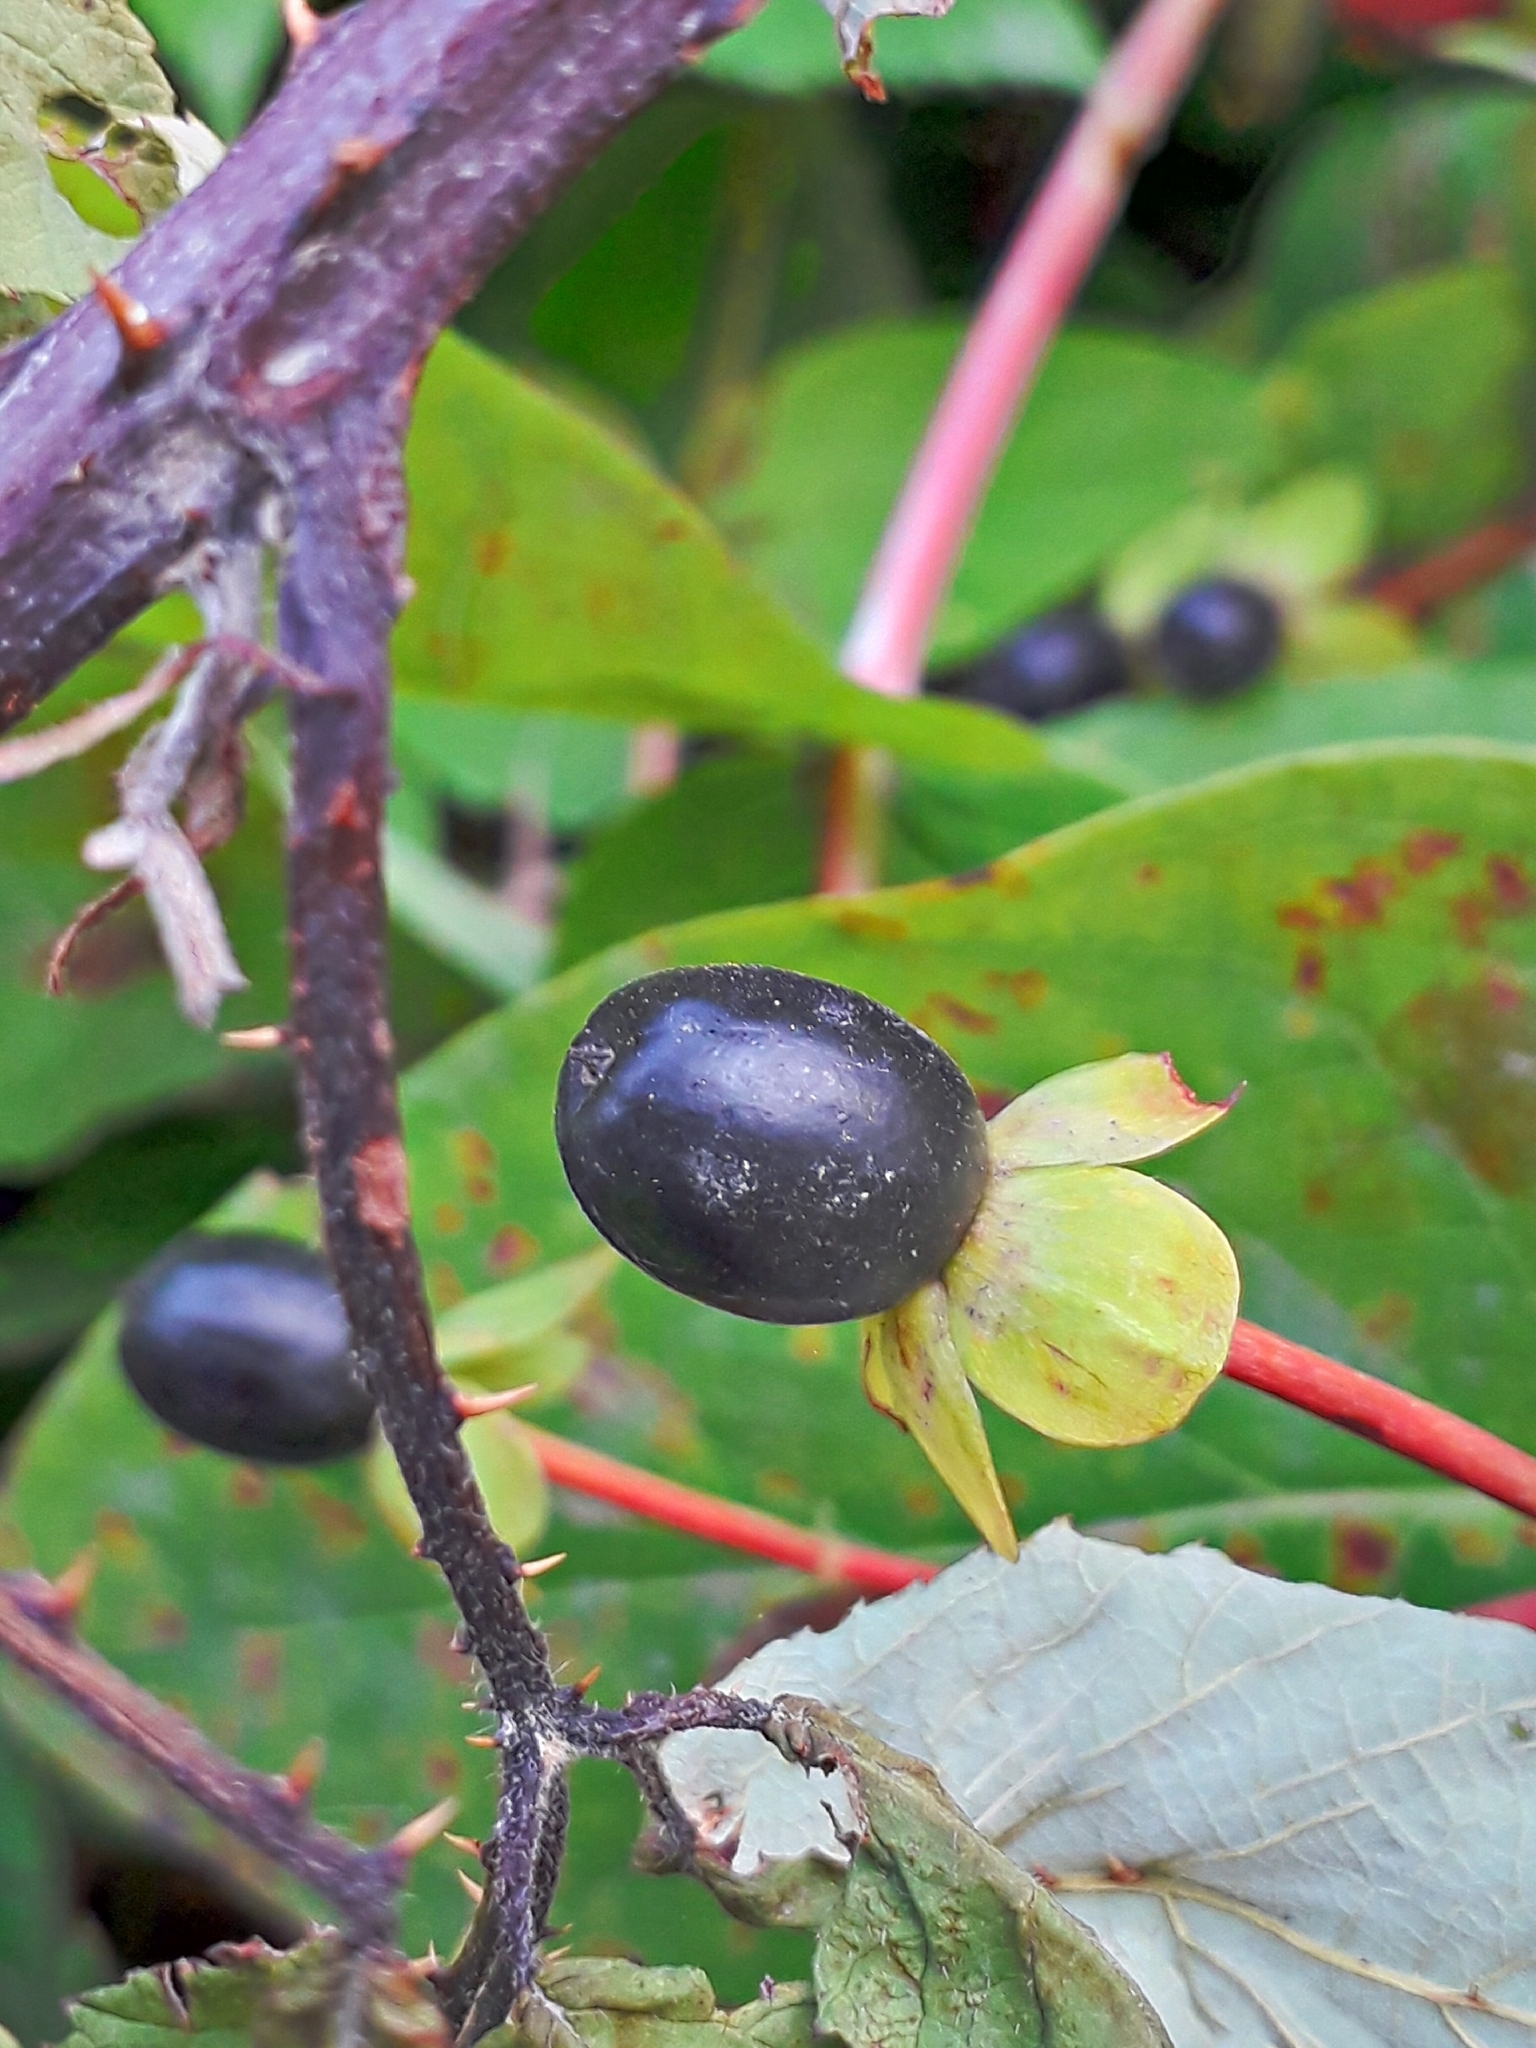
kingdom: Plantae
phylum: Tracheophyta
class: Magnoliopsida
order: Malpighiales
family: Hypericaceae
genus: Hypericum
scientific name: Hypericum androsaemum
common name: Sweet-amber
